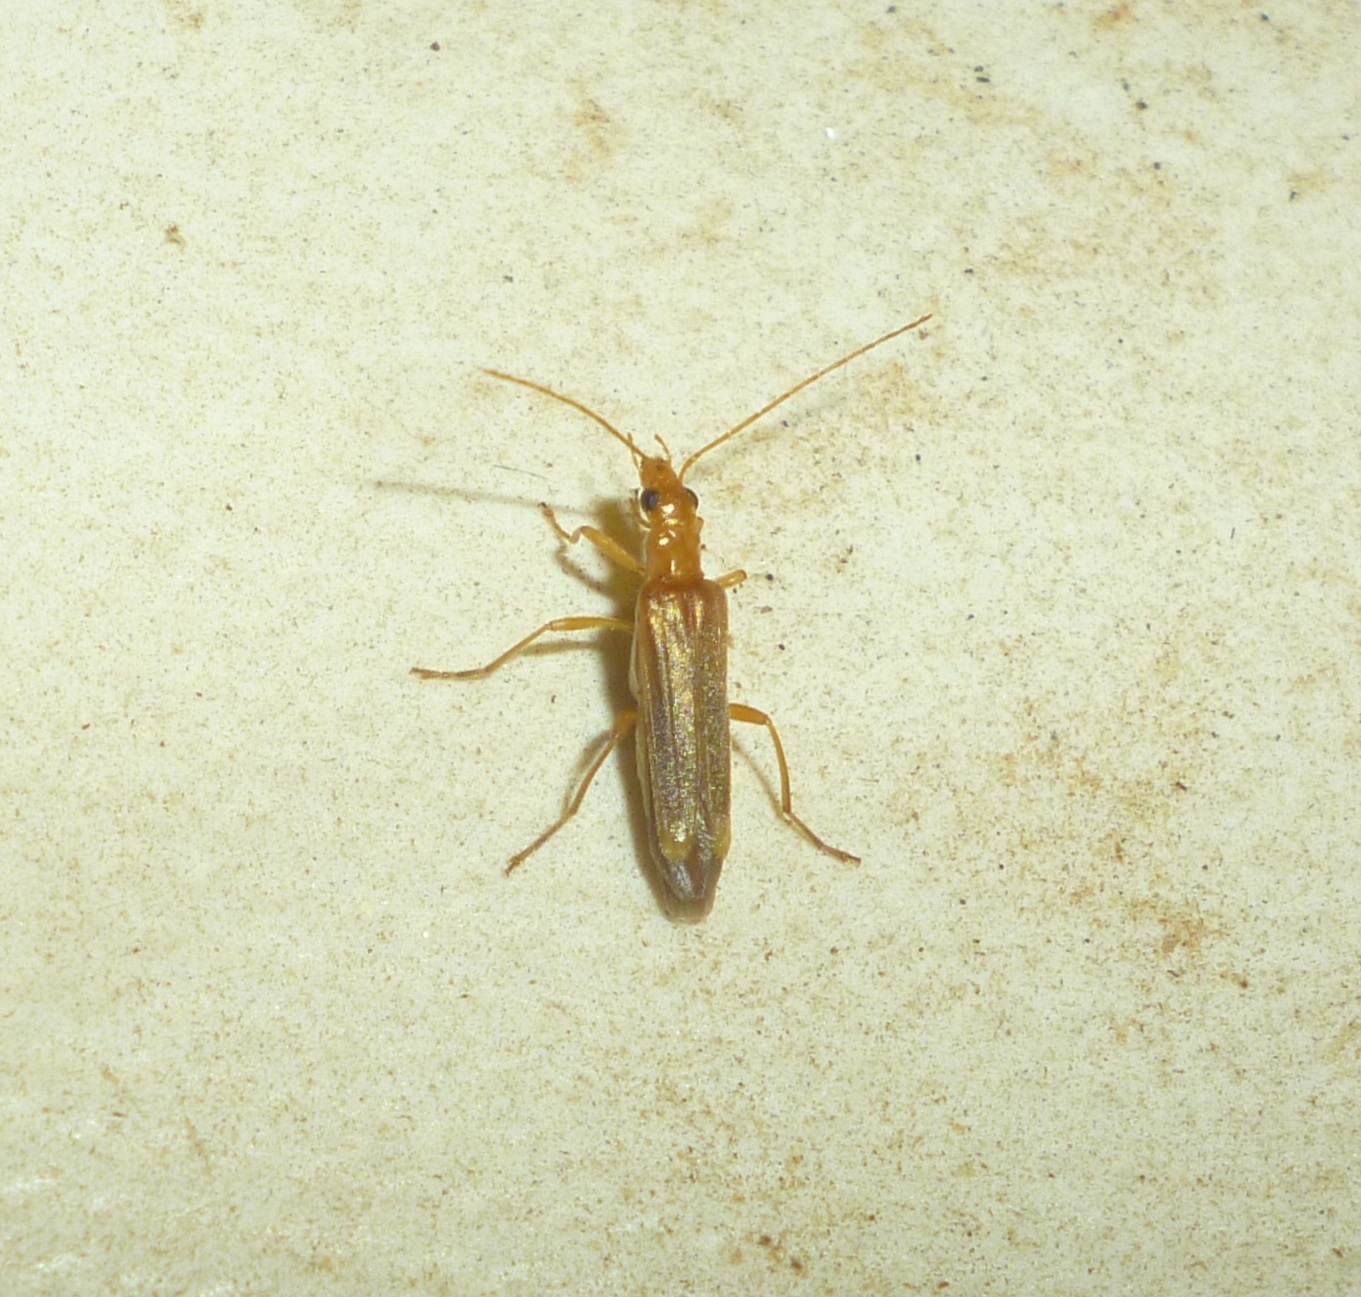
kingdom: Animalia
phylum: Arthropoda
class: Insecta
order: Coleoptera
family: Oedemeridae
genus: Oedemera
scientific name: Oedemera natolica
